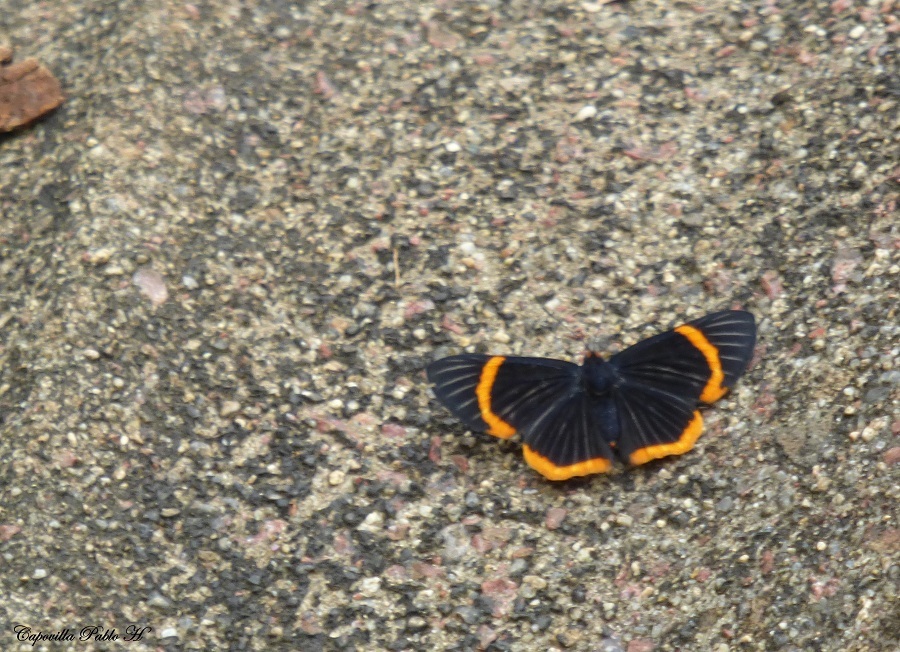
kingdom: Animalia
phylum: Arthropoda
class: Insecta
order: Lepidoptera
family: Riodinidae
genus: Riodina
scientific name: Riodina lycisca
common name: Lycisca metalmark
